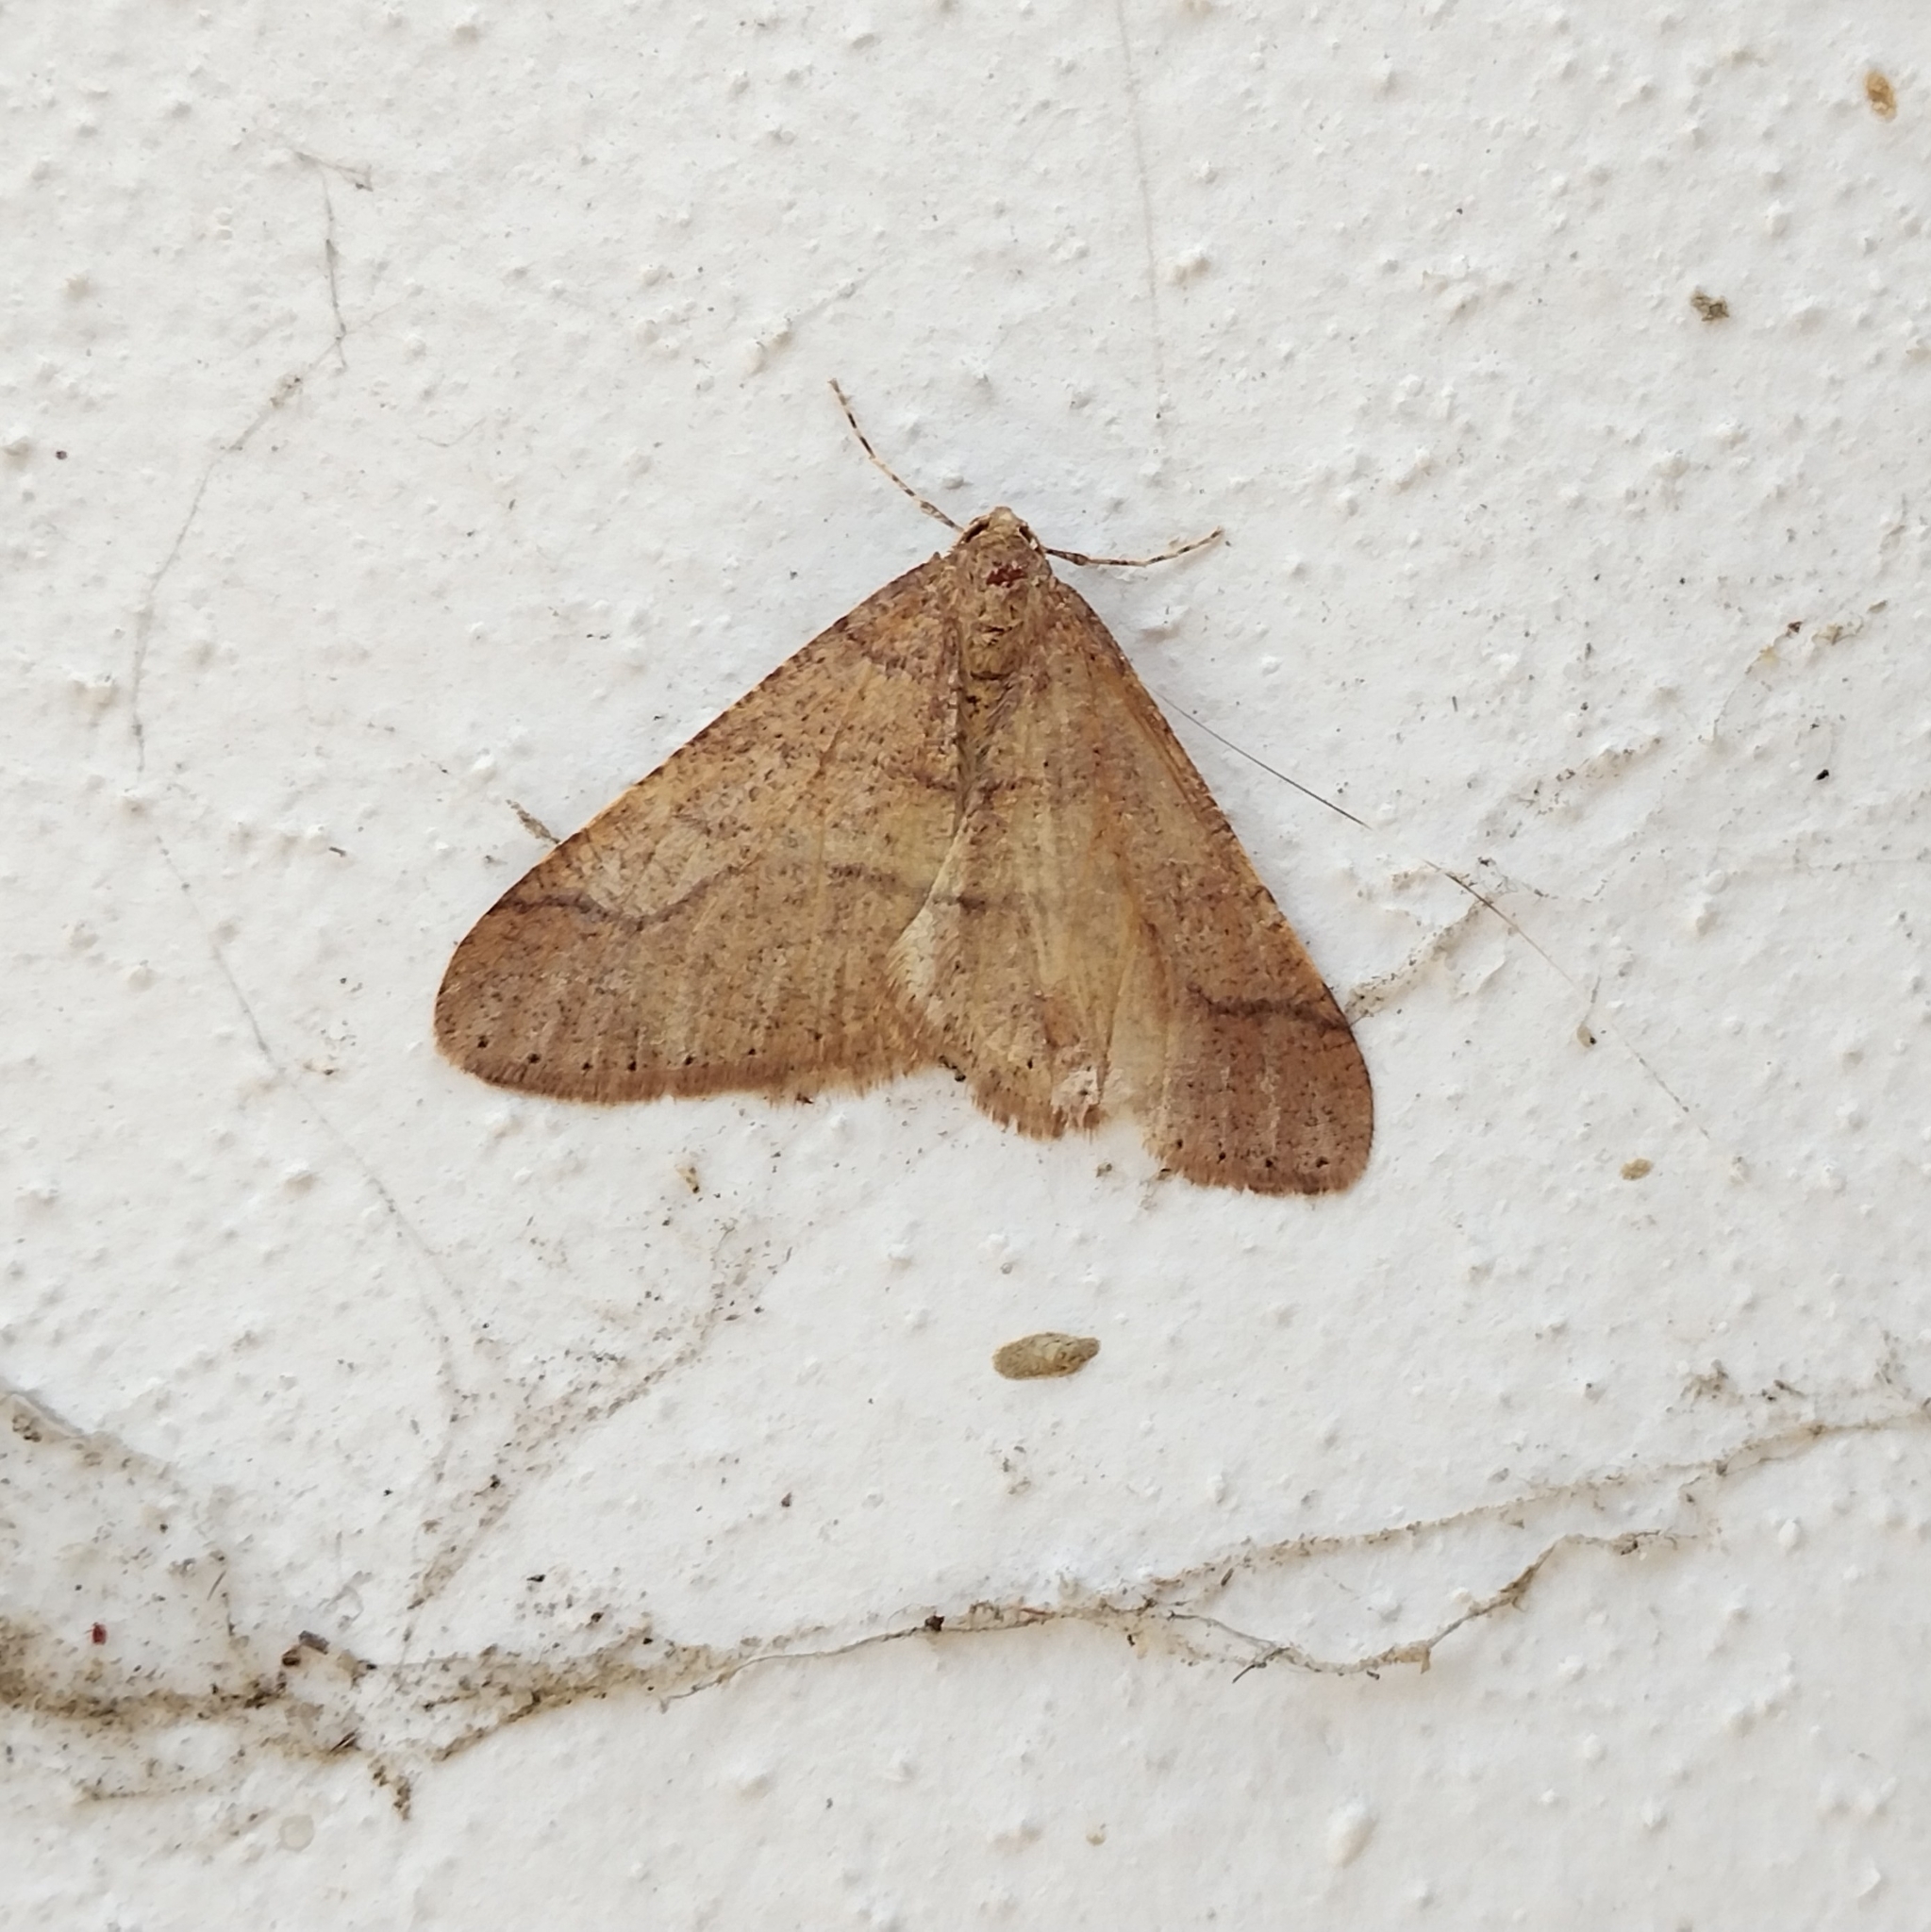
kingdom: Animalia
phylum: Arthropoda
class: Insecta
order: Lepidoptera
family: Geometridae
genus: Agriopis
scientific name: Agriopis marginaria
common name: Dotted border
